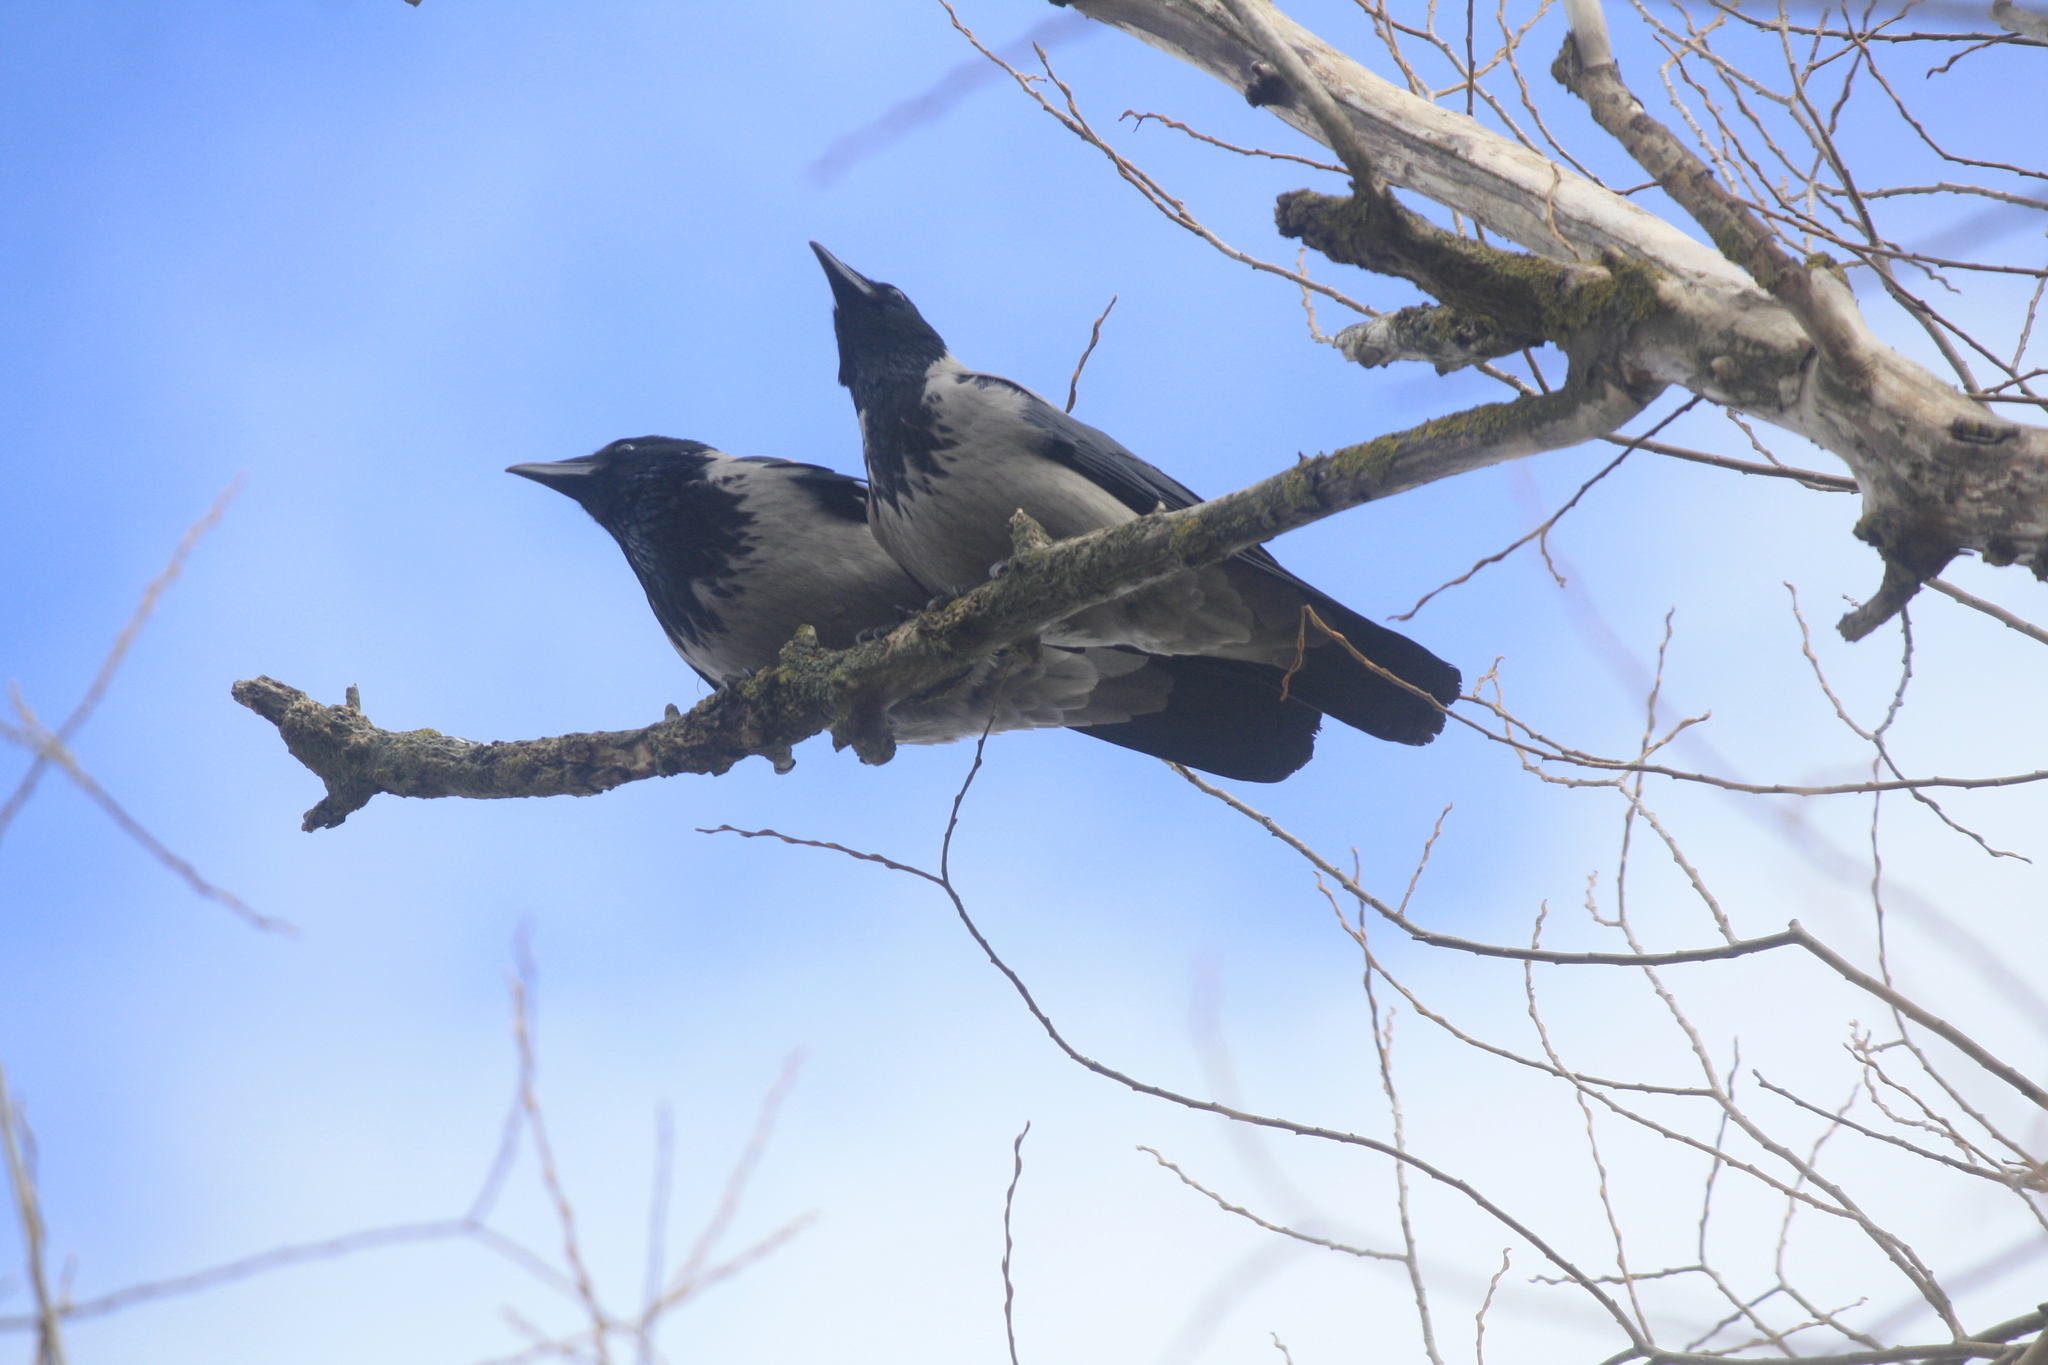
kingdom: Animalia
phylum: Chordata
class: Aves
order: Passeriformes
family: Corvidae
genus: Corvus
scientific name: Corvus cornix
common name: Hooded crow
